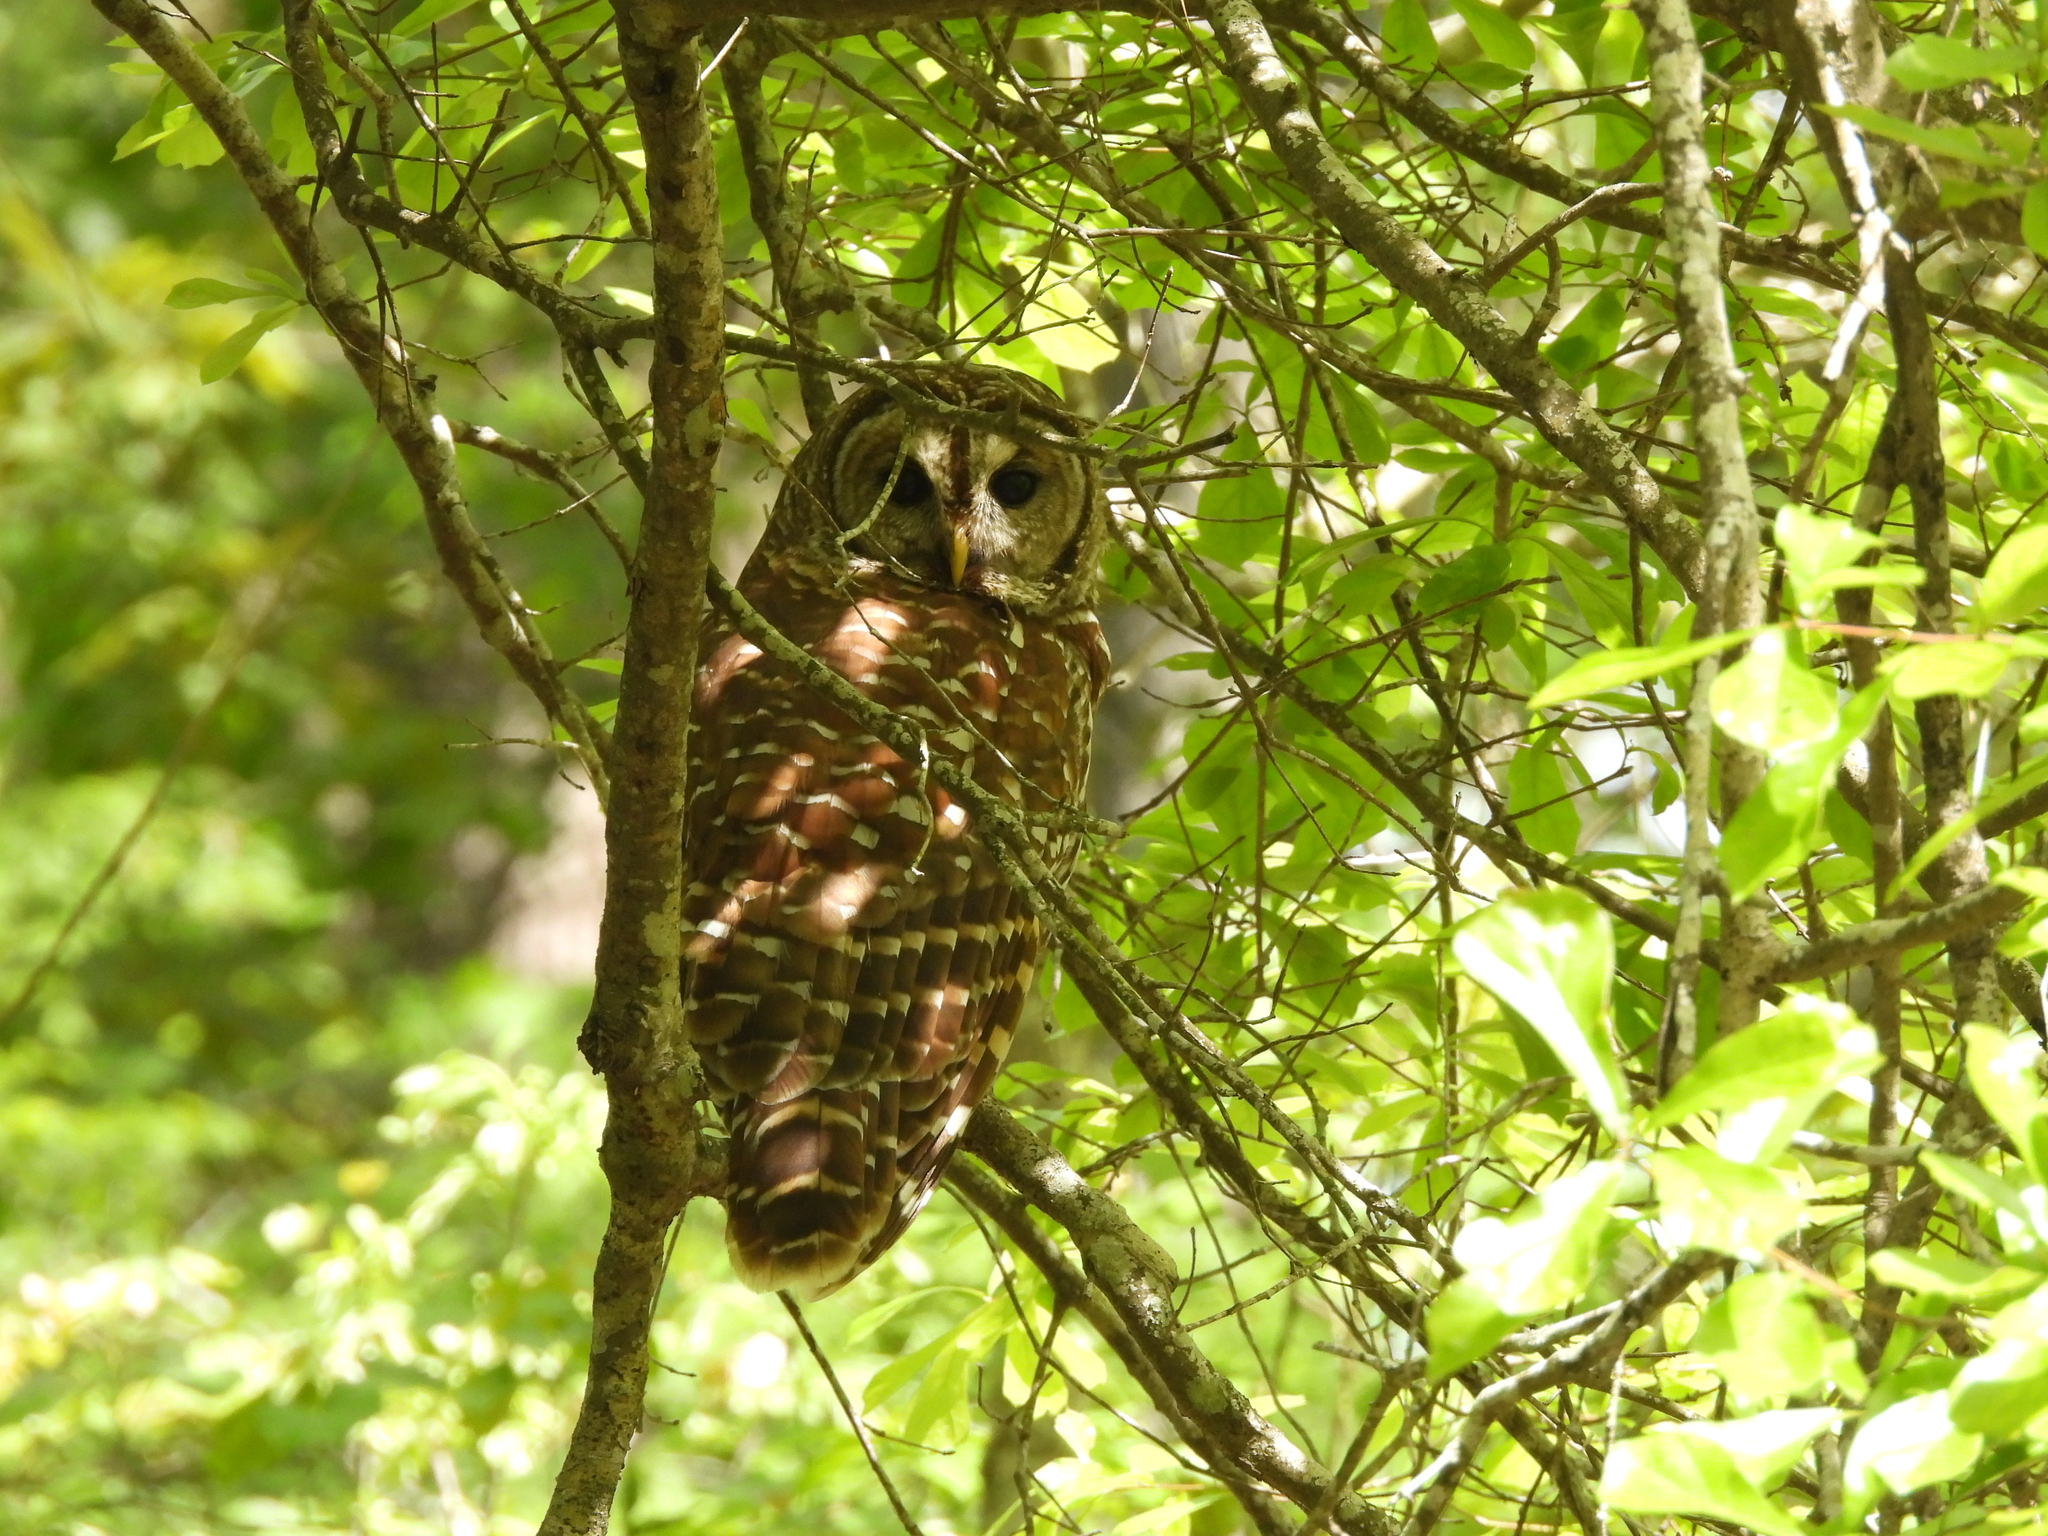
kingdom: Animalia
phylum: Chordata
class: Aves
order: Strigiformes
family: Strigidae
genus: Strix
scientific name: Strix varia
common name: Barred owl
